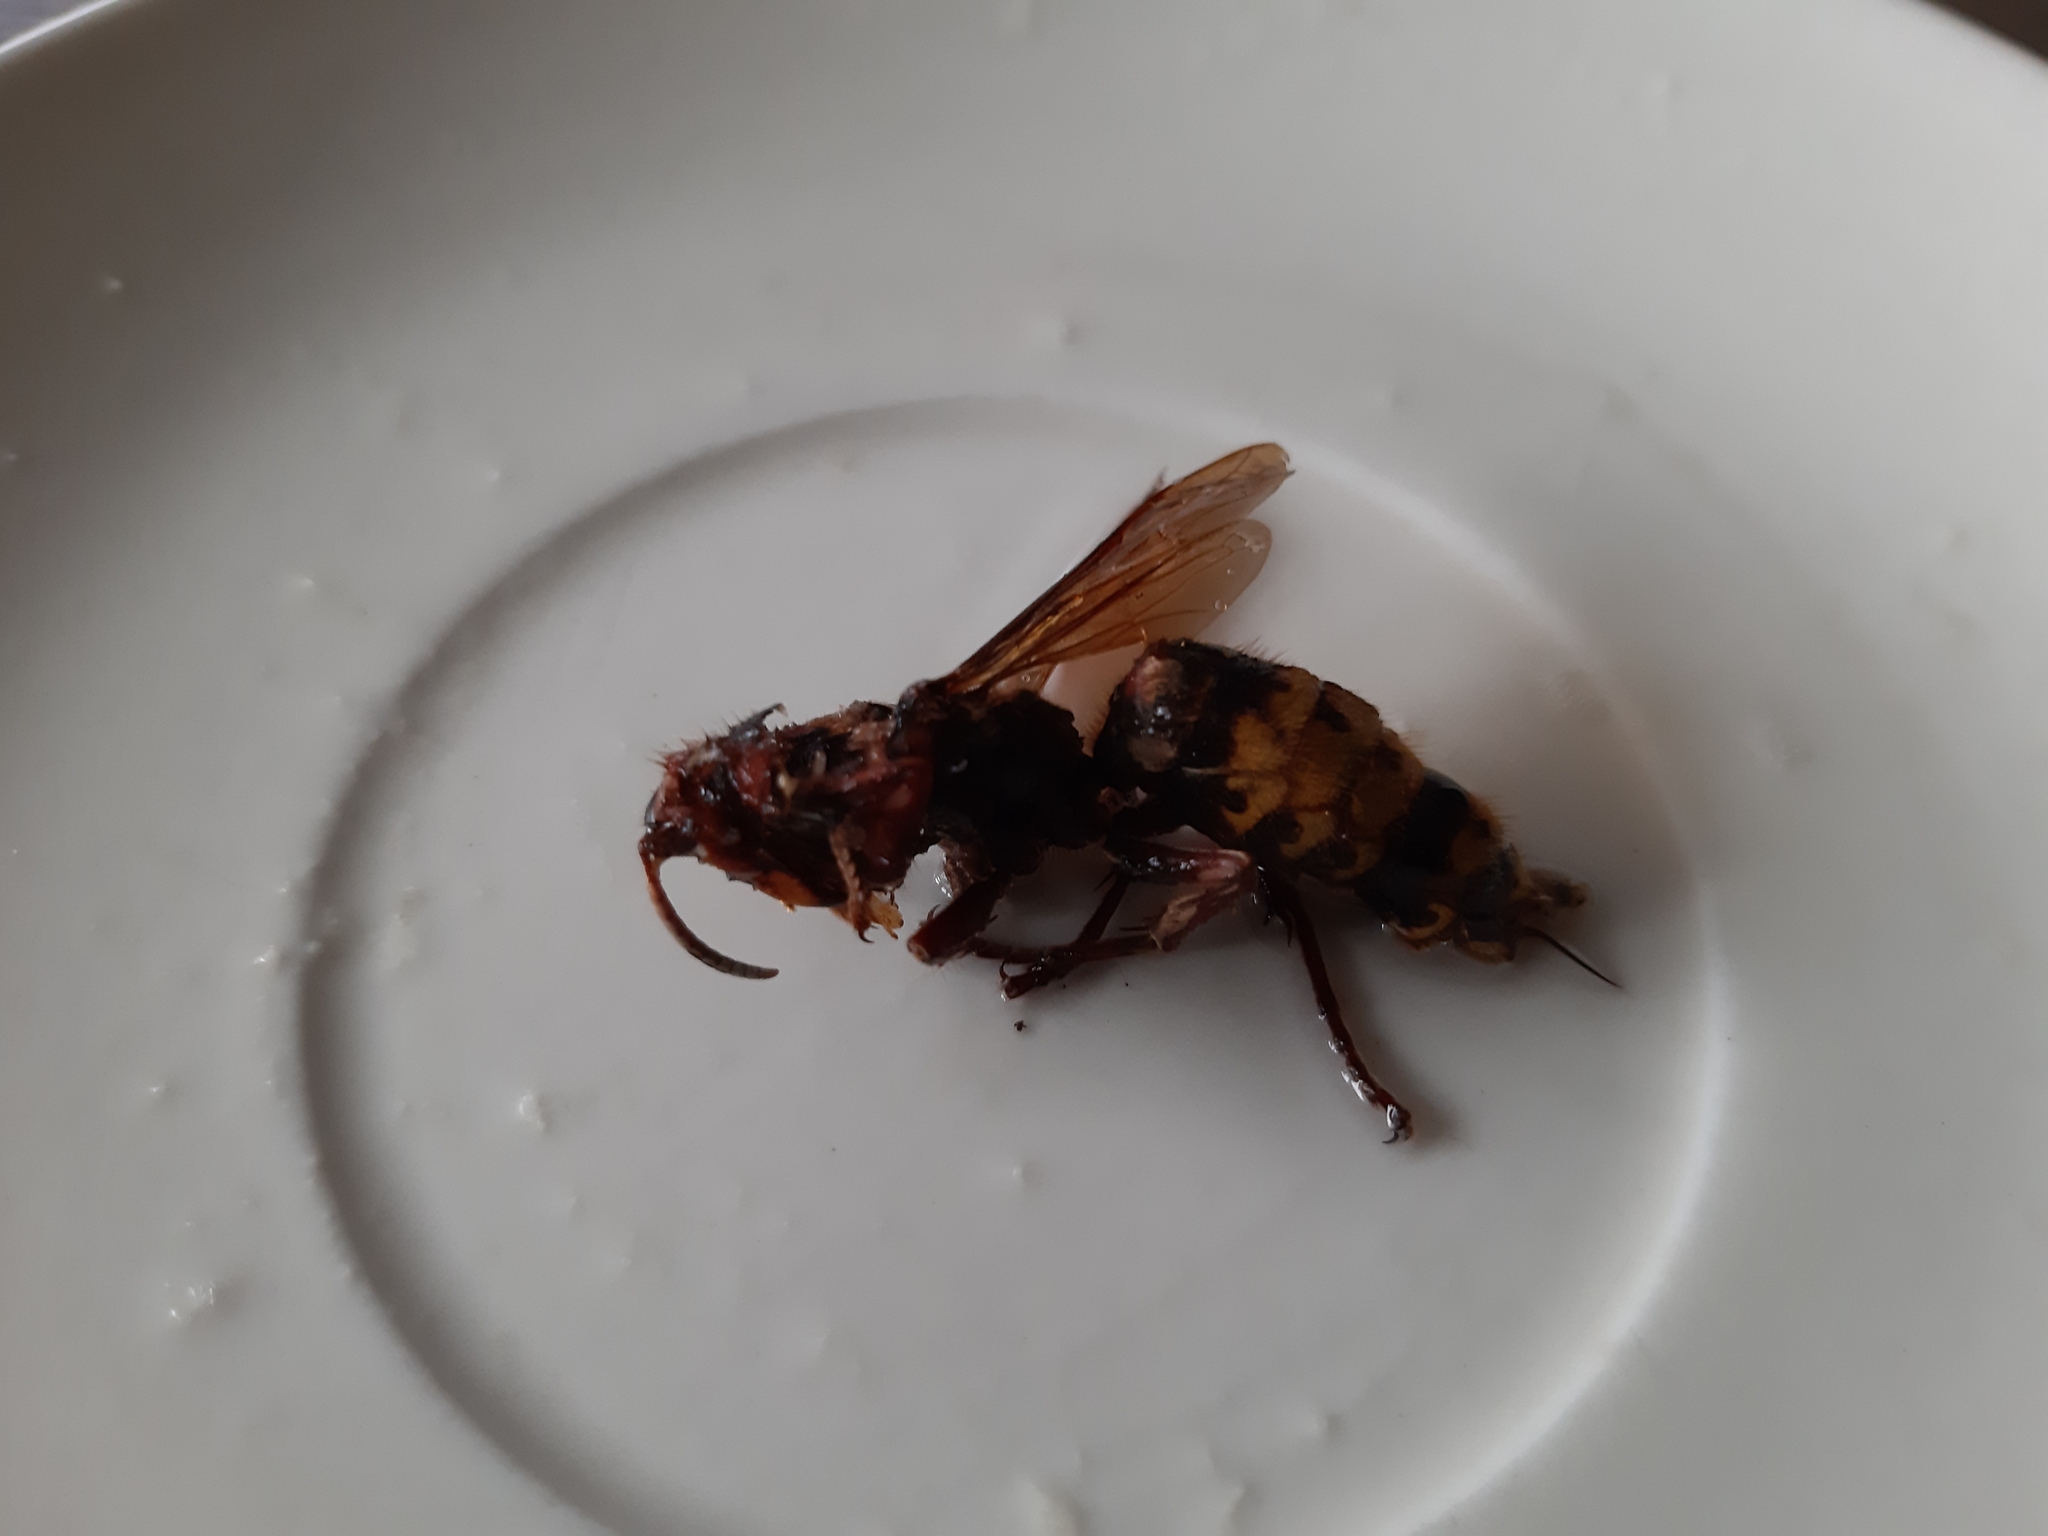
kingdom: Animalia
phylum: Arthropoda
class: Insecta
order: Hymenoptera
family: Vespidae
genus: Vespa
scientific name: Vespa crabro
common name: Hornet
